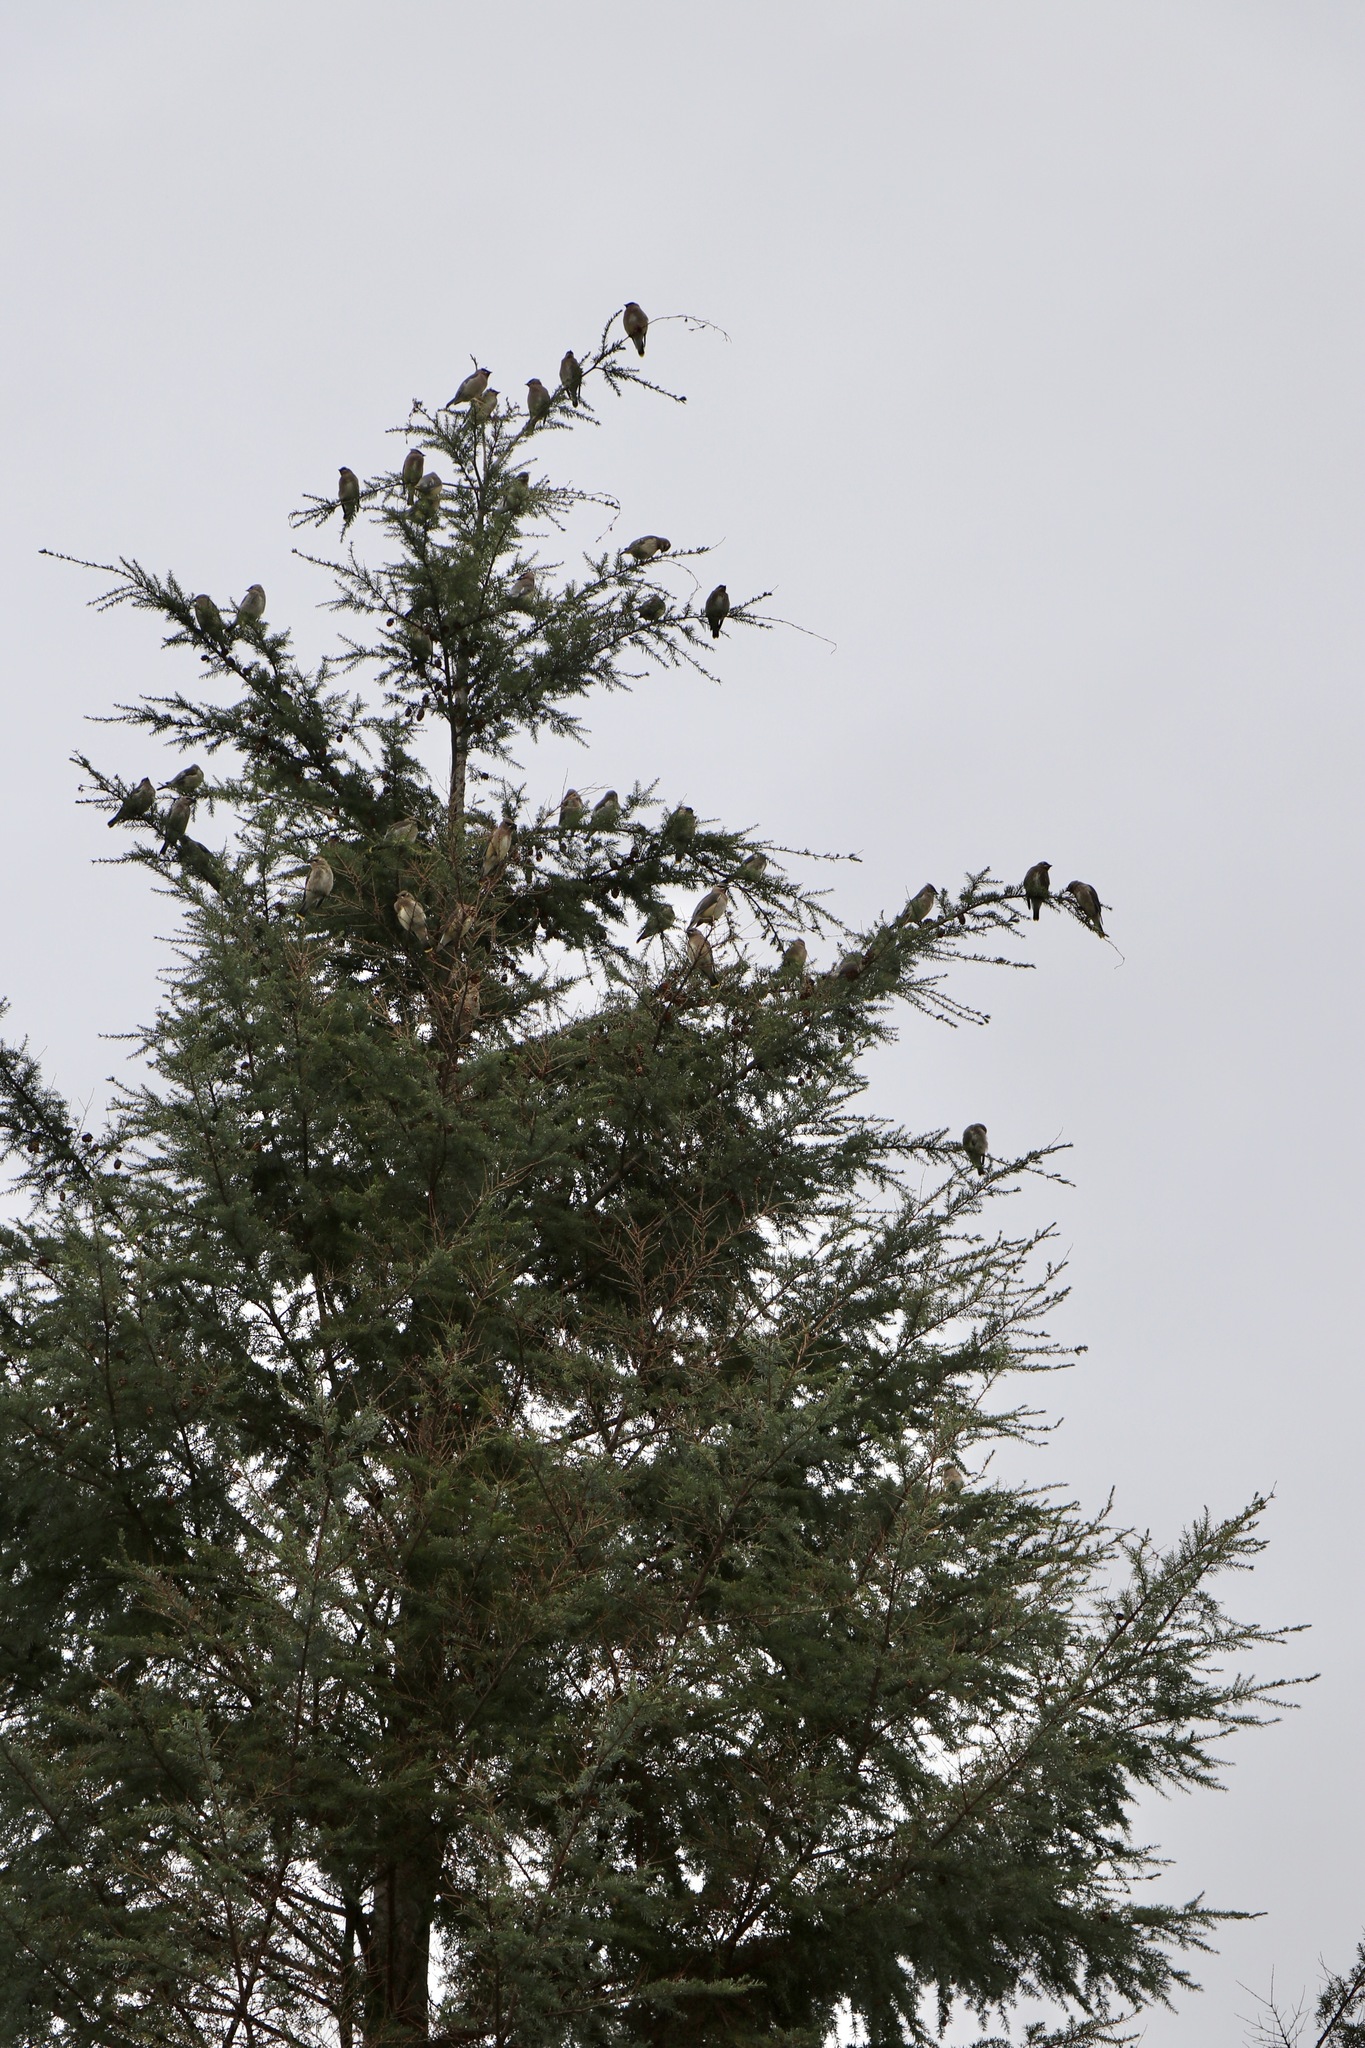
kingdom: Animalia
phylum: Chordata
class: Aves
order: Passeriformes
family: Bombycillidae
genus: Bombycilla
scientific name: Bombycilla cedrorum
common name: Cedar waxwing
